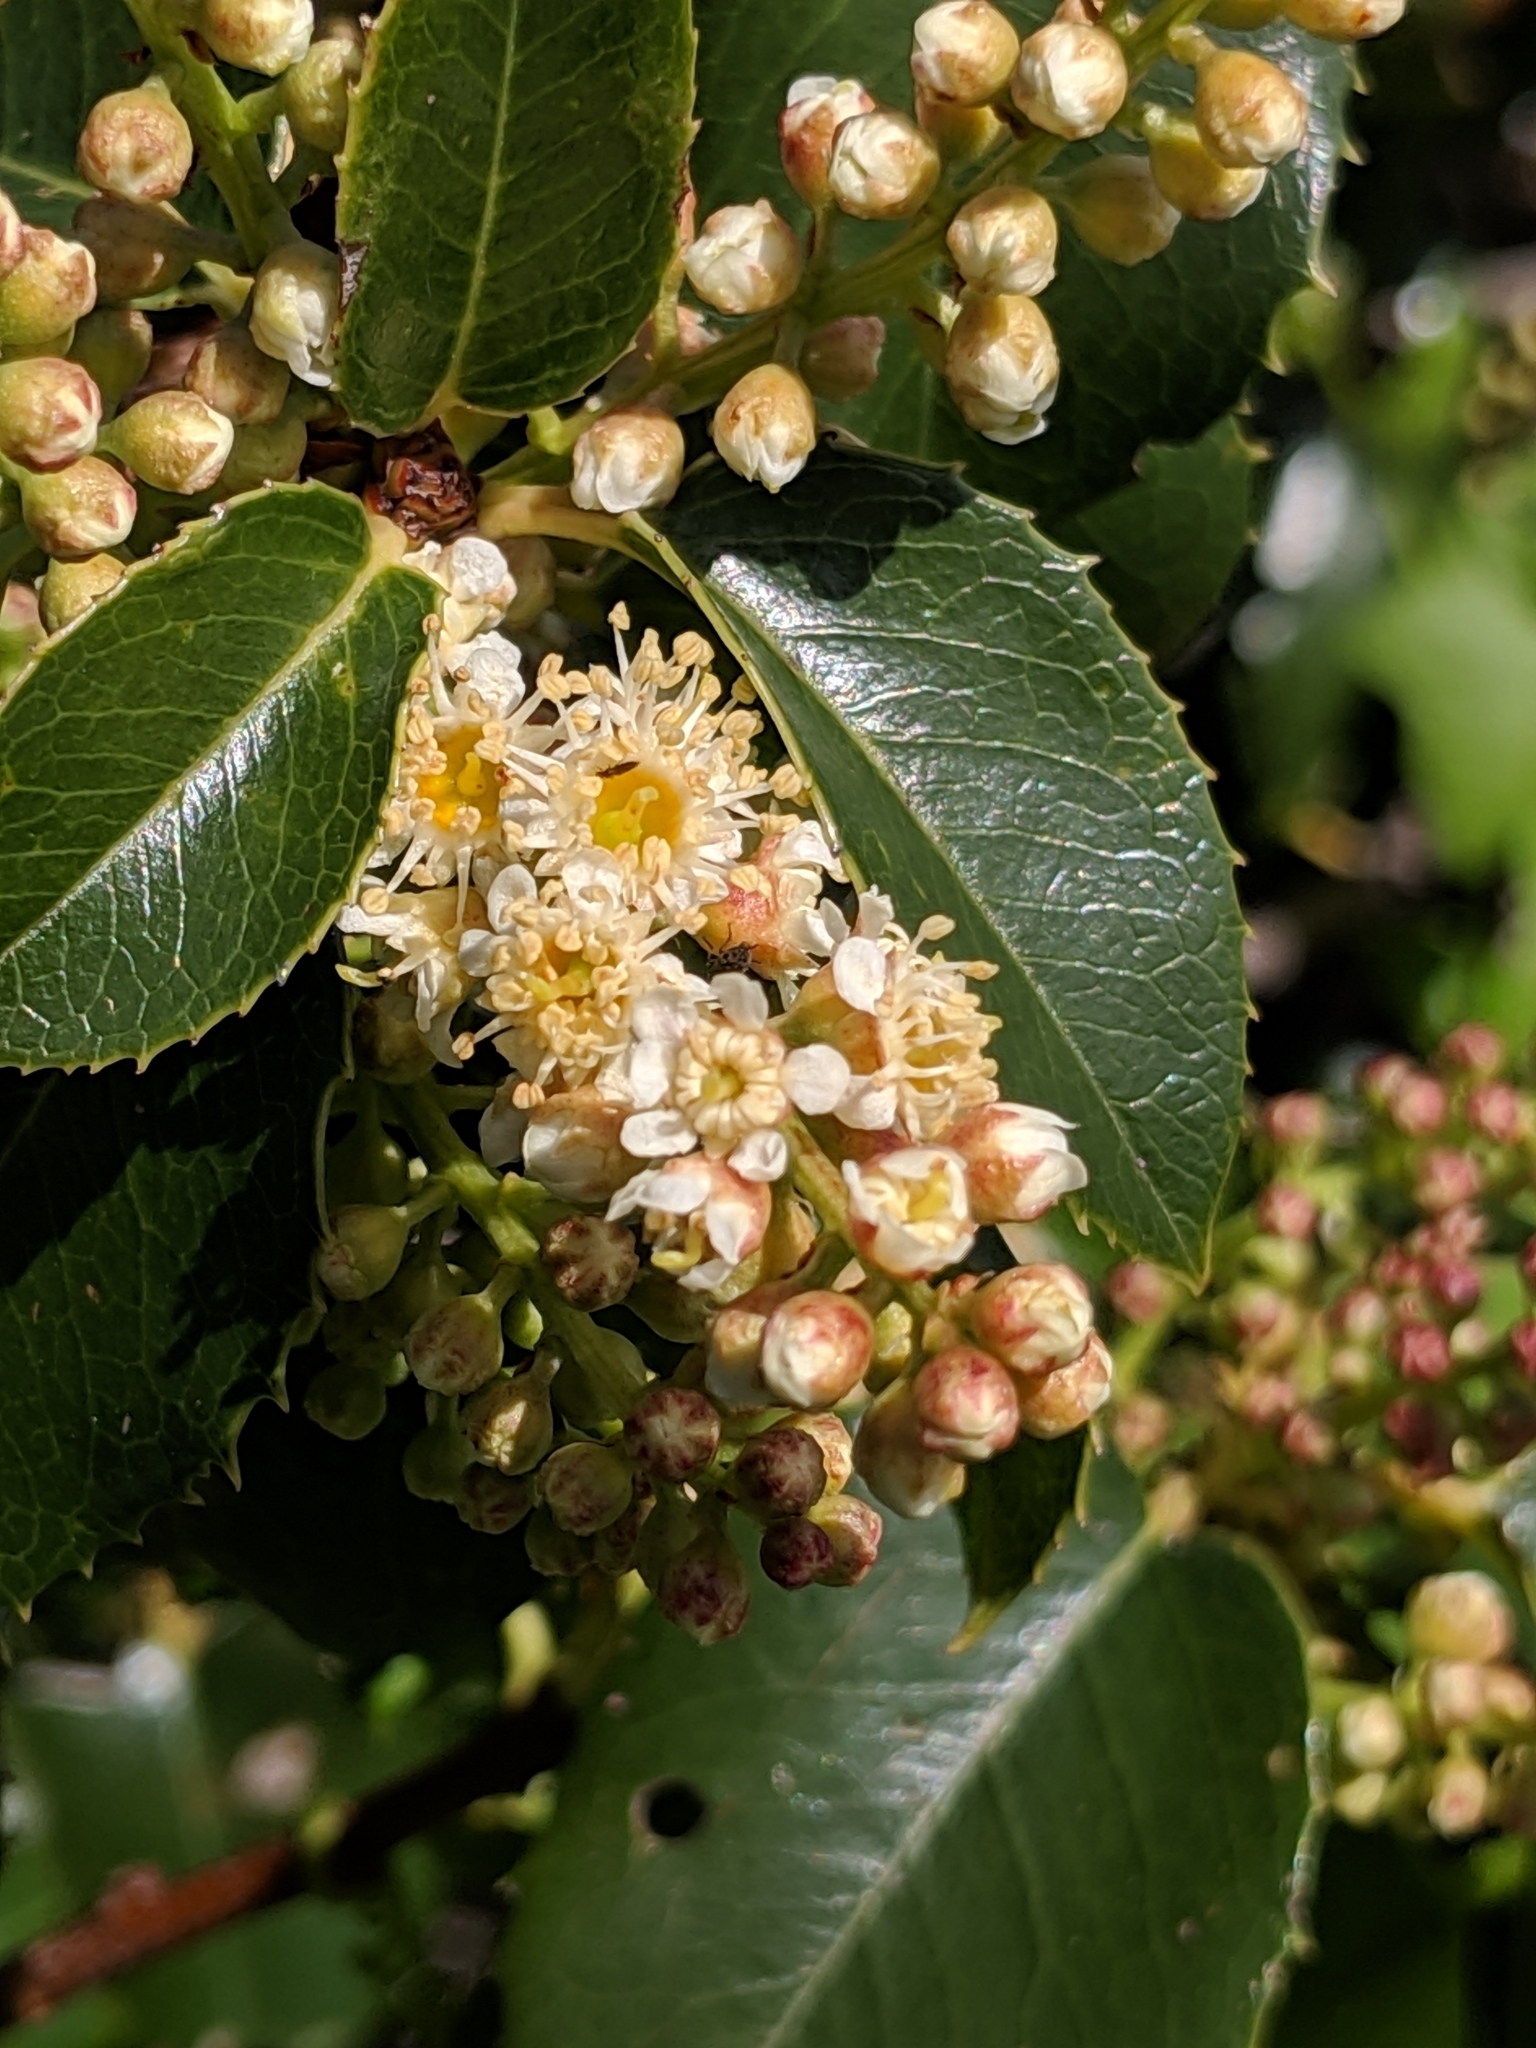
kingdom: Plantae
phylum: Tracheophyta
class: Magnoliopsida
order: Rosales
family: Rosaceae
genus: Prunus
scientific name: Prunus ilicifolia
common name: Hollyleaf cherry
